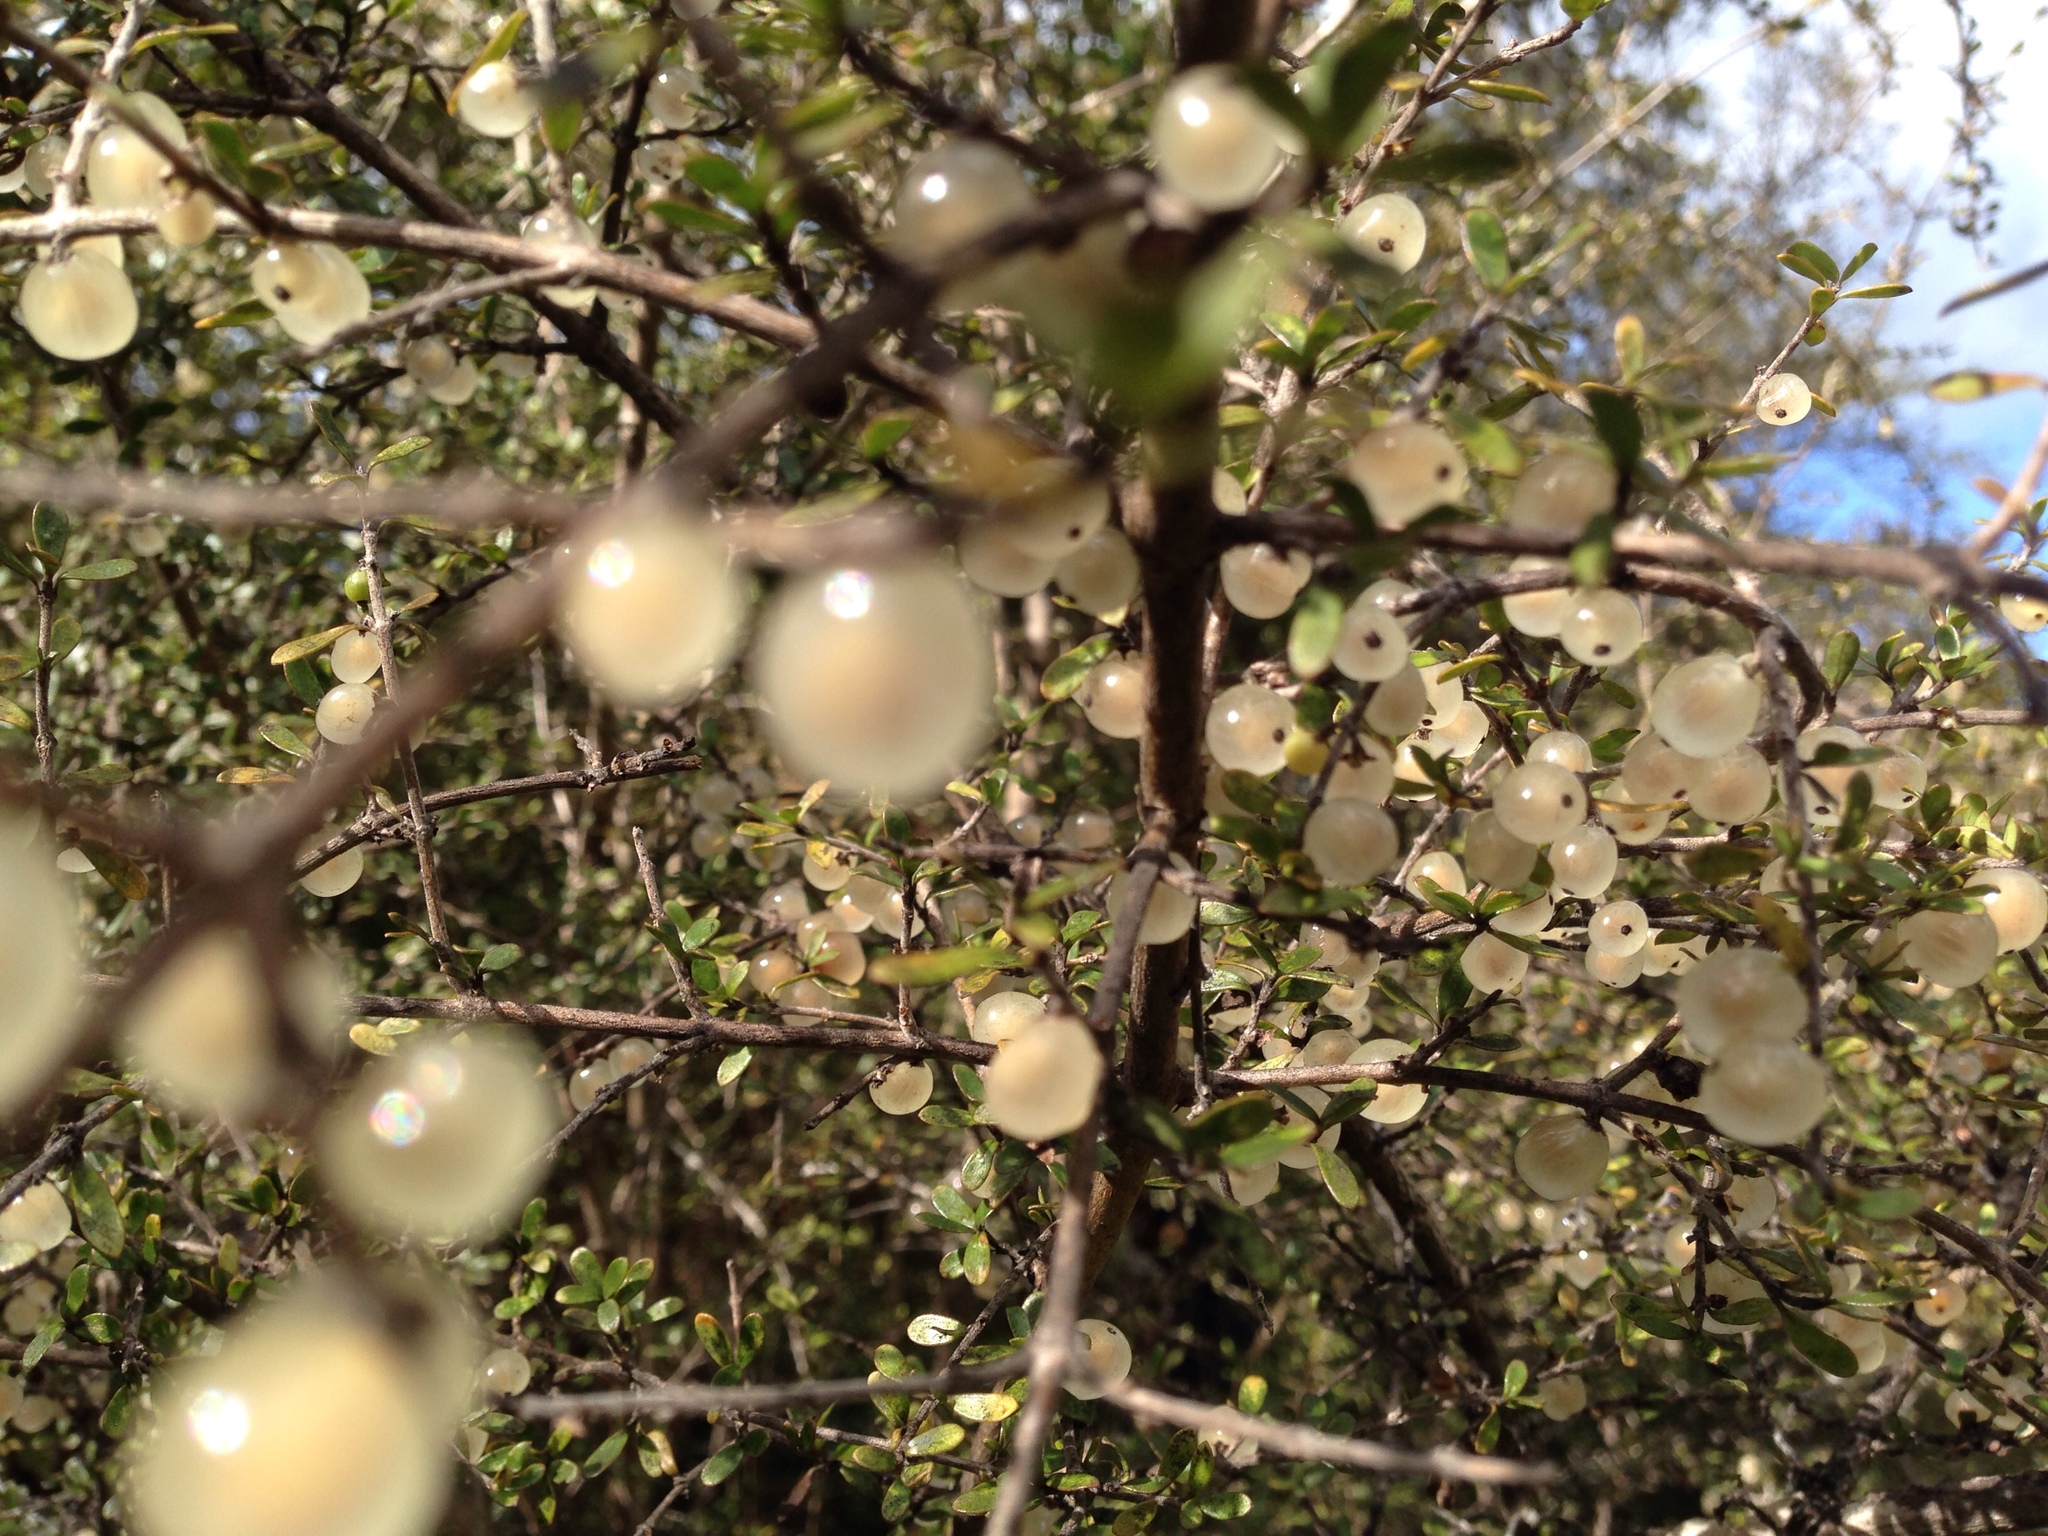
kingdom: Plantae
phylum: Tracheophyta
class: Magnoliopsida
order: Gentianales
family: Rubiaceae
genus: Coprosma
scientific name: Coprosma dumosa
